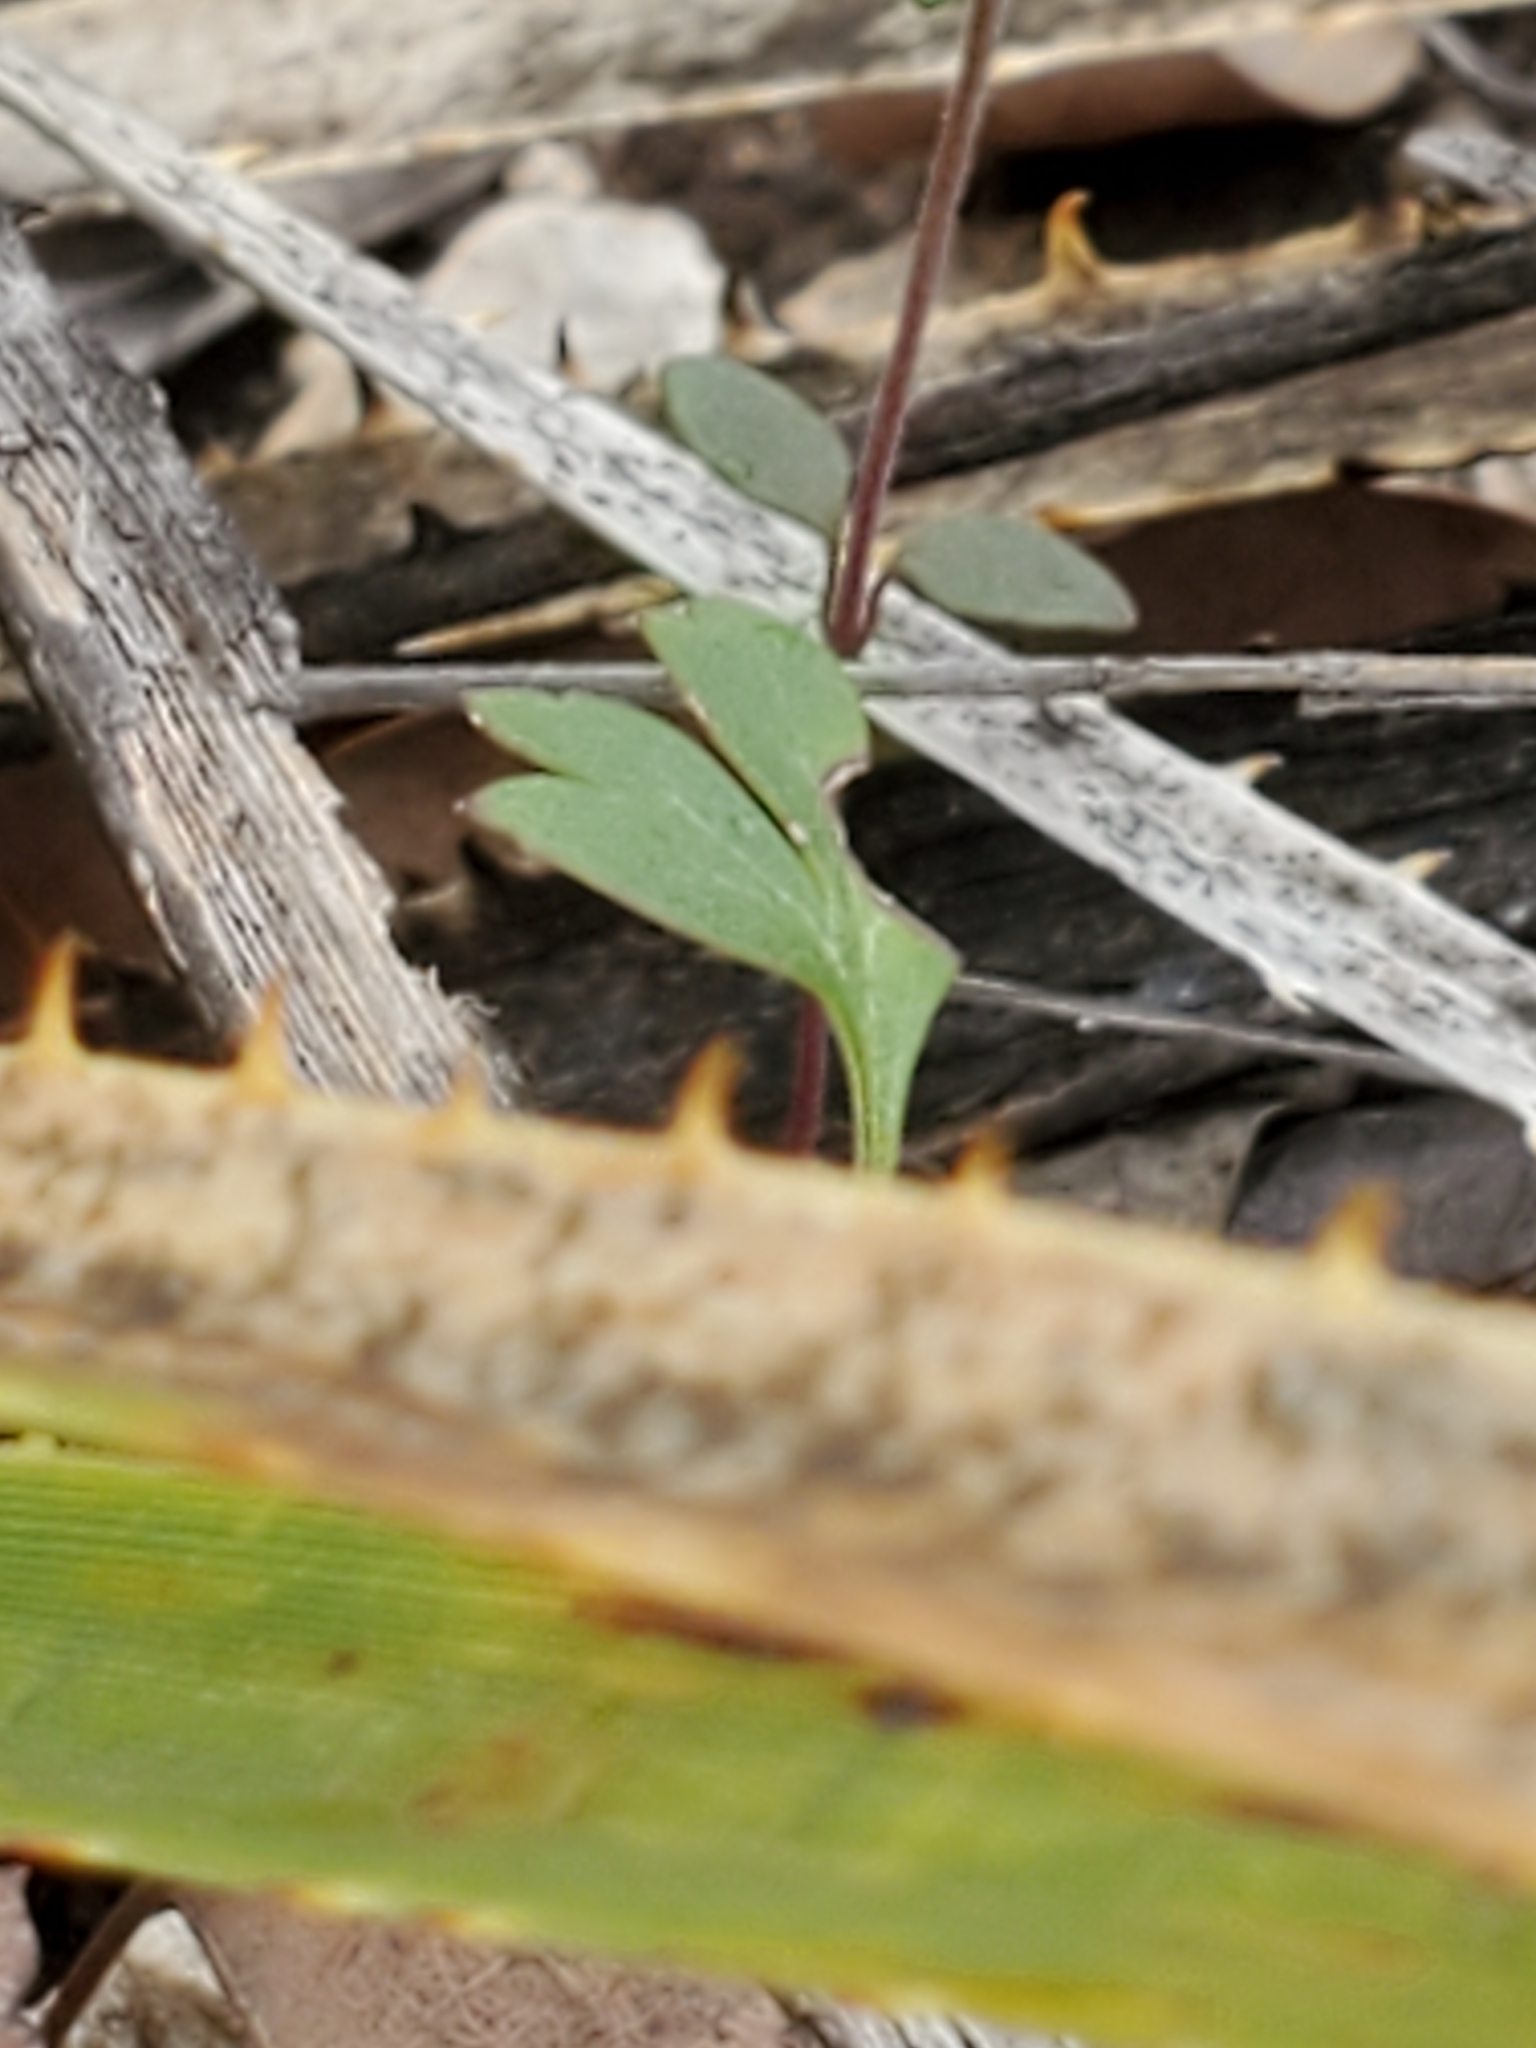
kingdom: Plantae
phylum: Tracheophyta
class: Magnoliopsida
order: Ranunculales
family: Ranunculaceae
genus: Anemone
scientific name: Anemone edwardsiana
